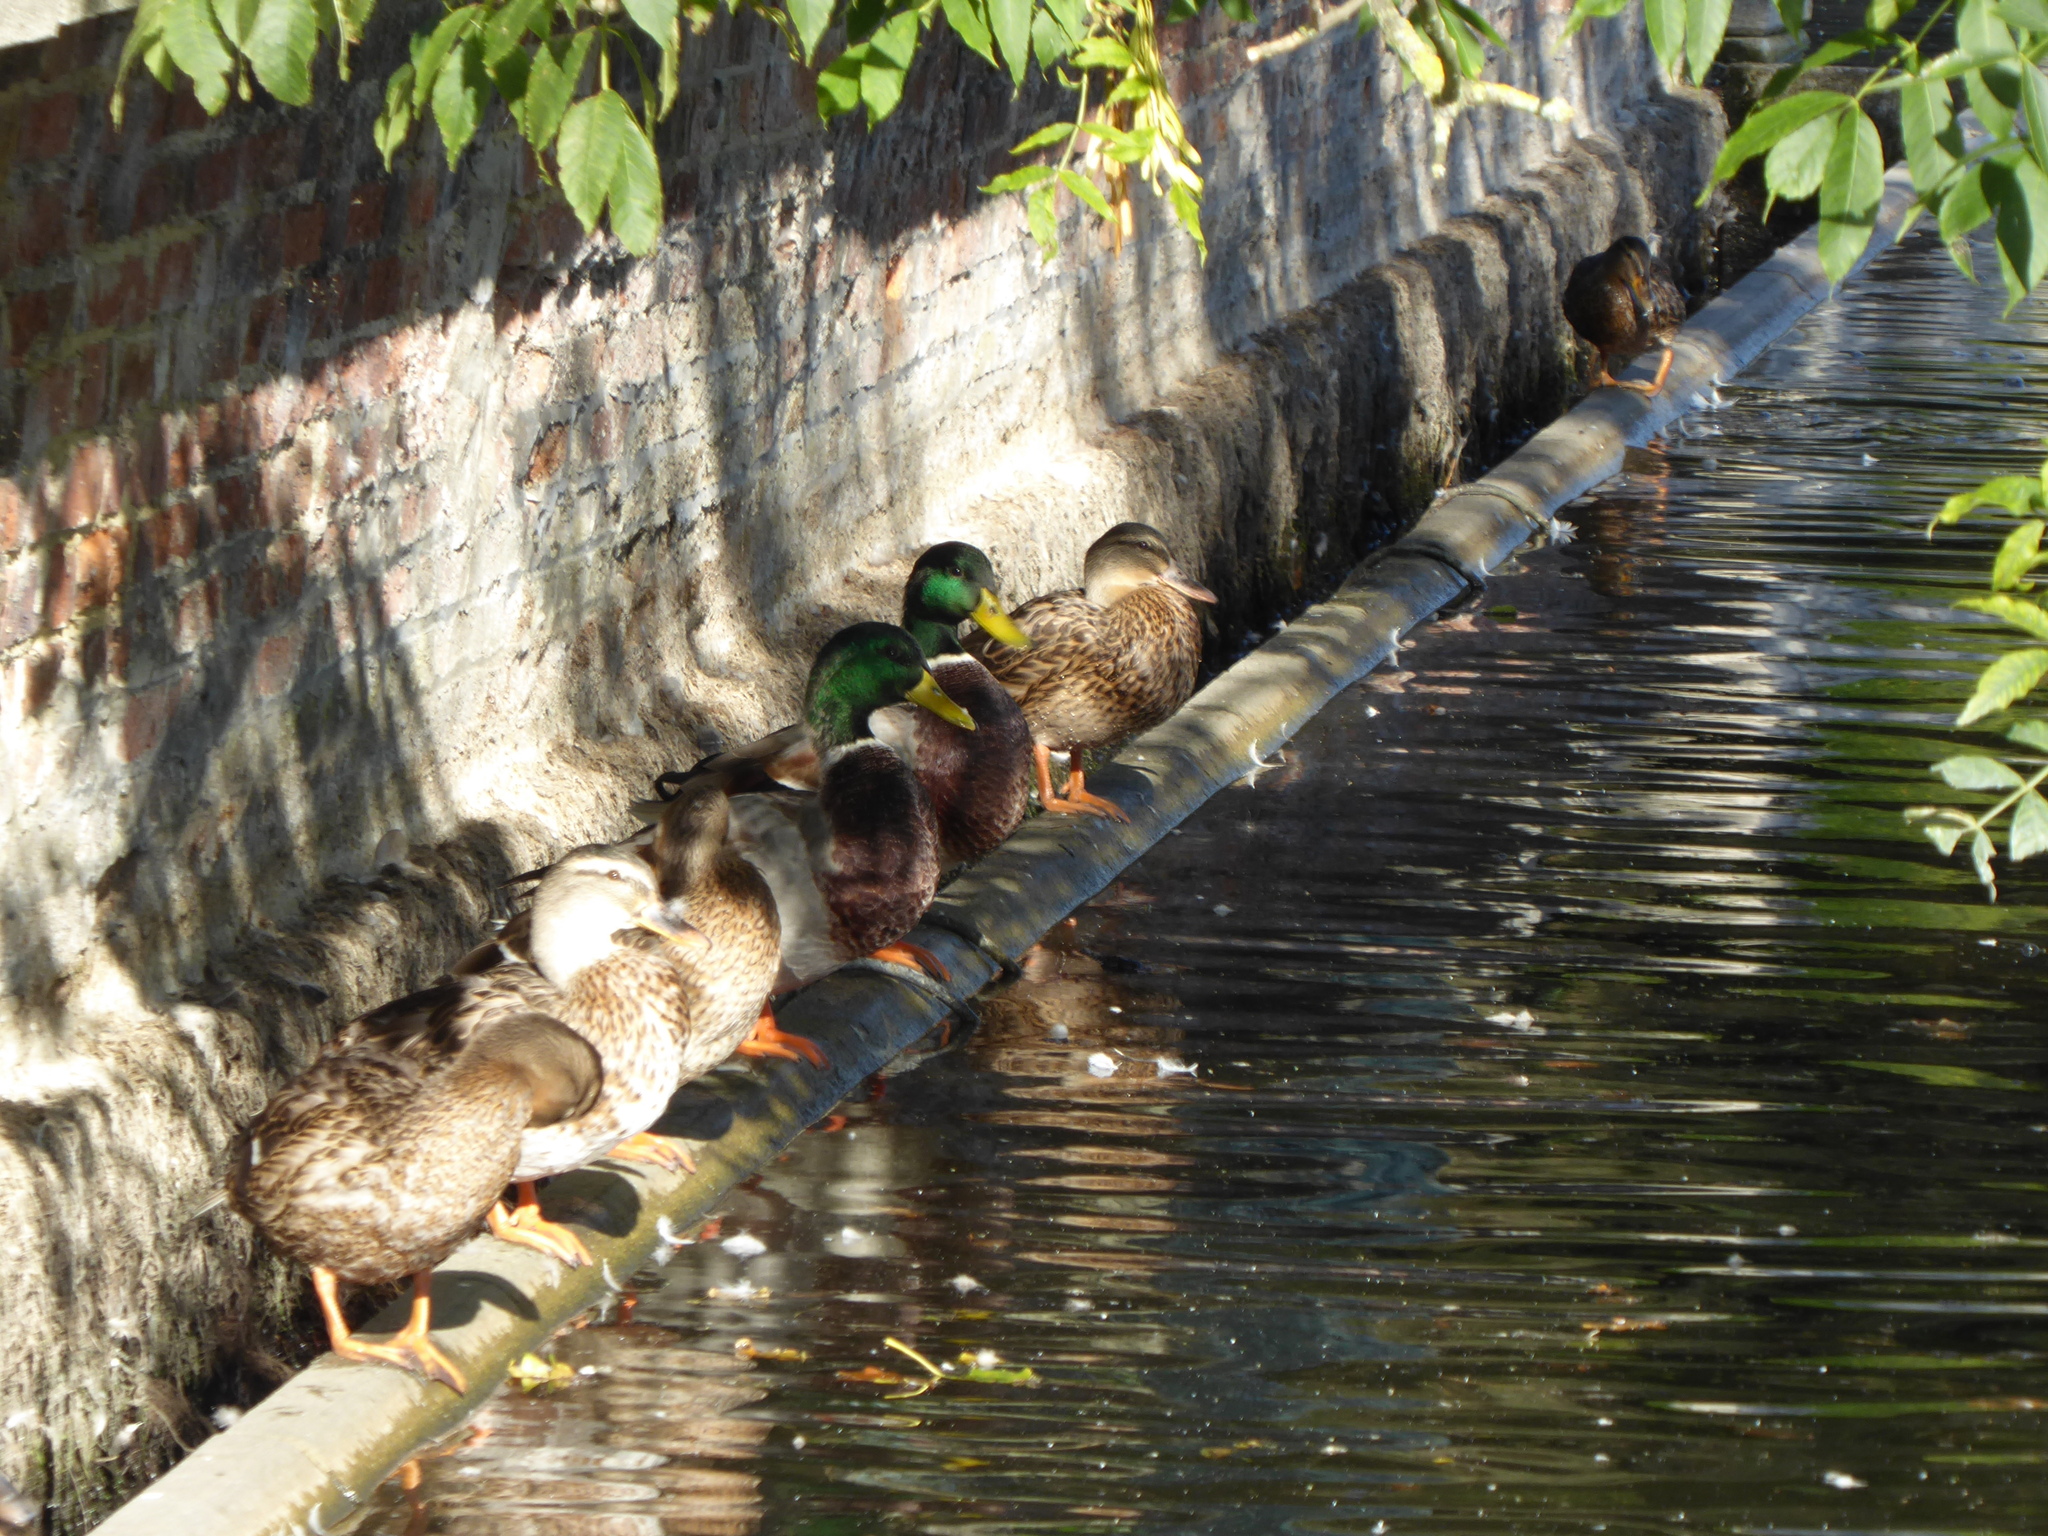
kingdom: Animalia
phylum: Chordata
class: Aves
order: Anseriformes
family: Anatidae
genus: Anas
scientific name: Anas platyrhynchos
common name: Mallard
